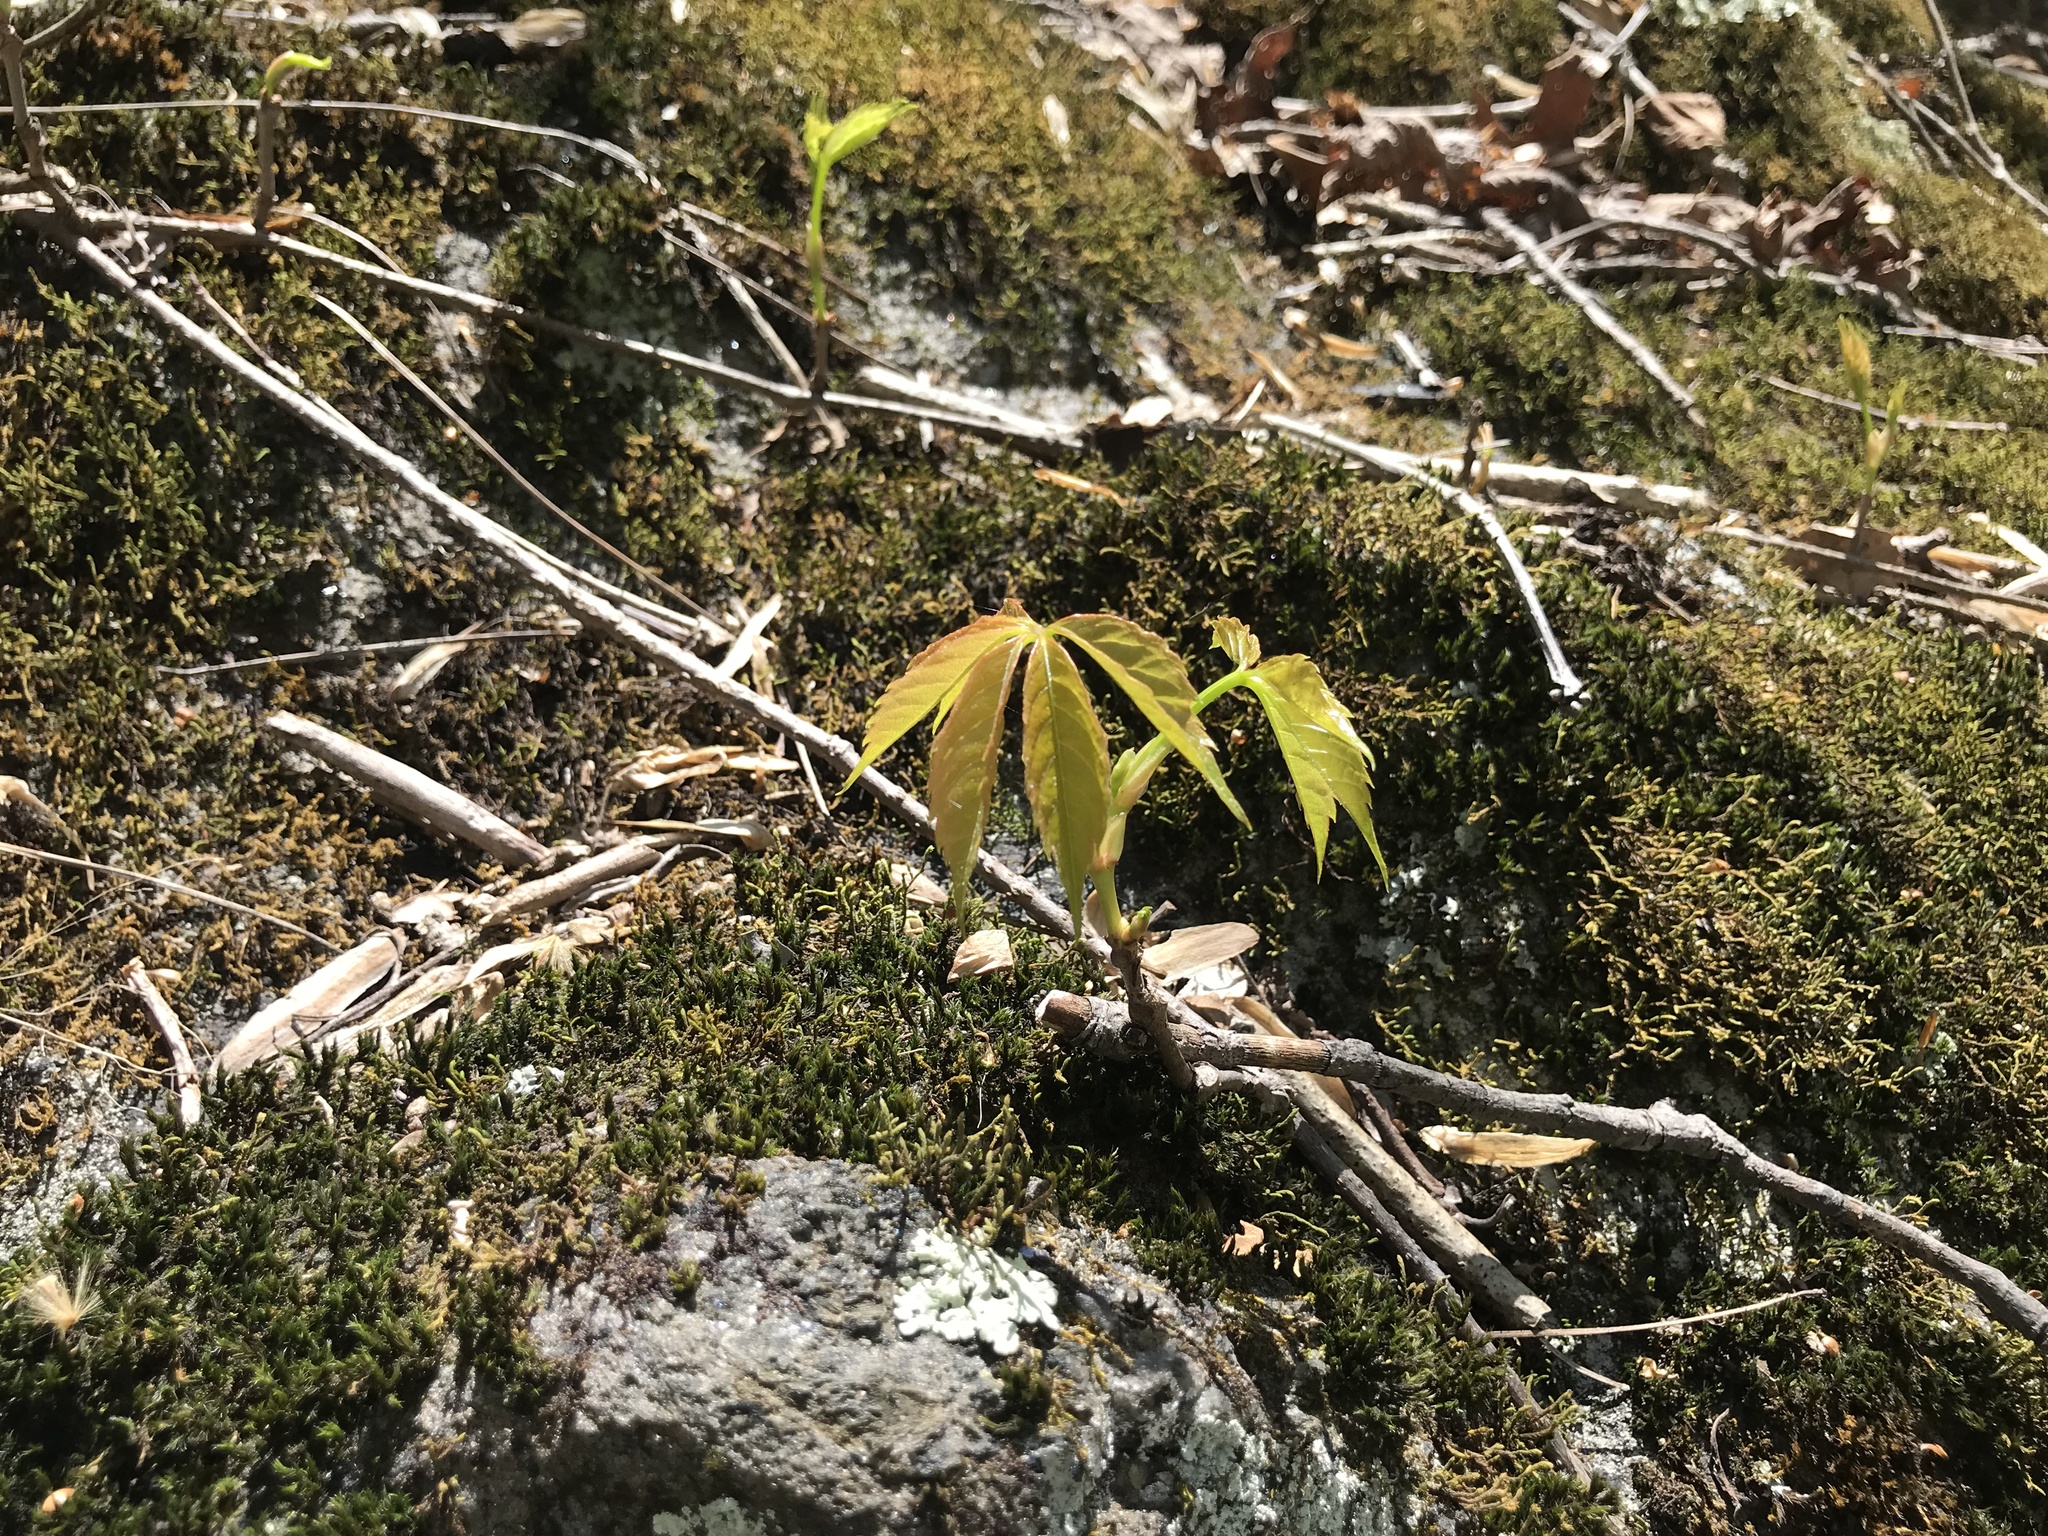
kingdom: Plantae
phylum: Tracheophyta
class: Magnoliopsida
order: Vitales
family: Vitaceae
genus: Parthenocissus
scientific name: Parthenocissus quinquefolia
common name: Virginia-creeper
